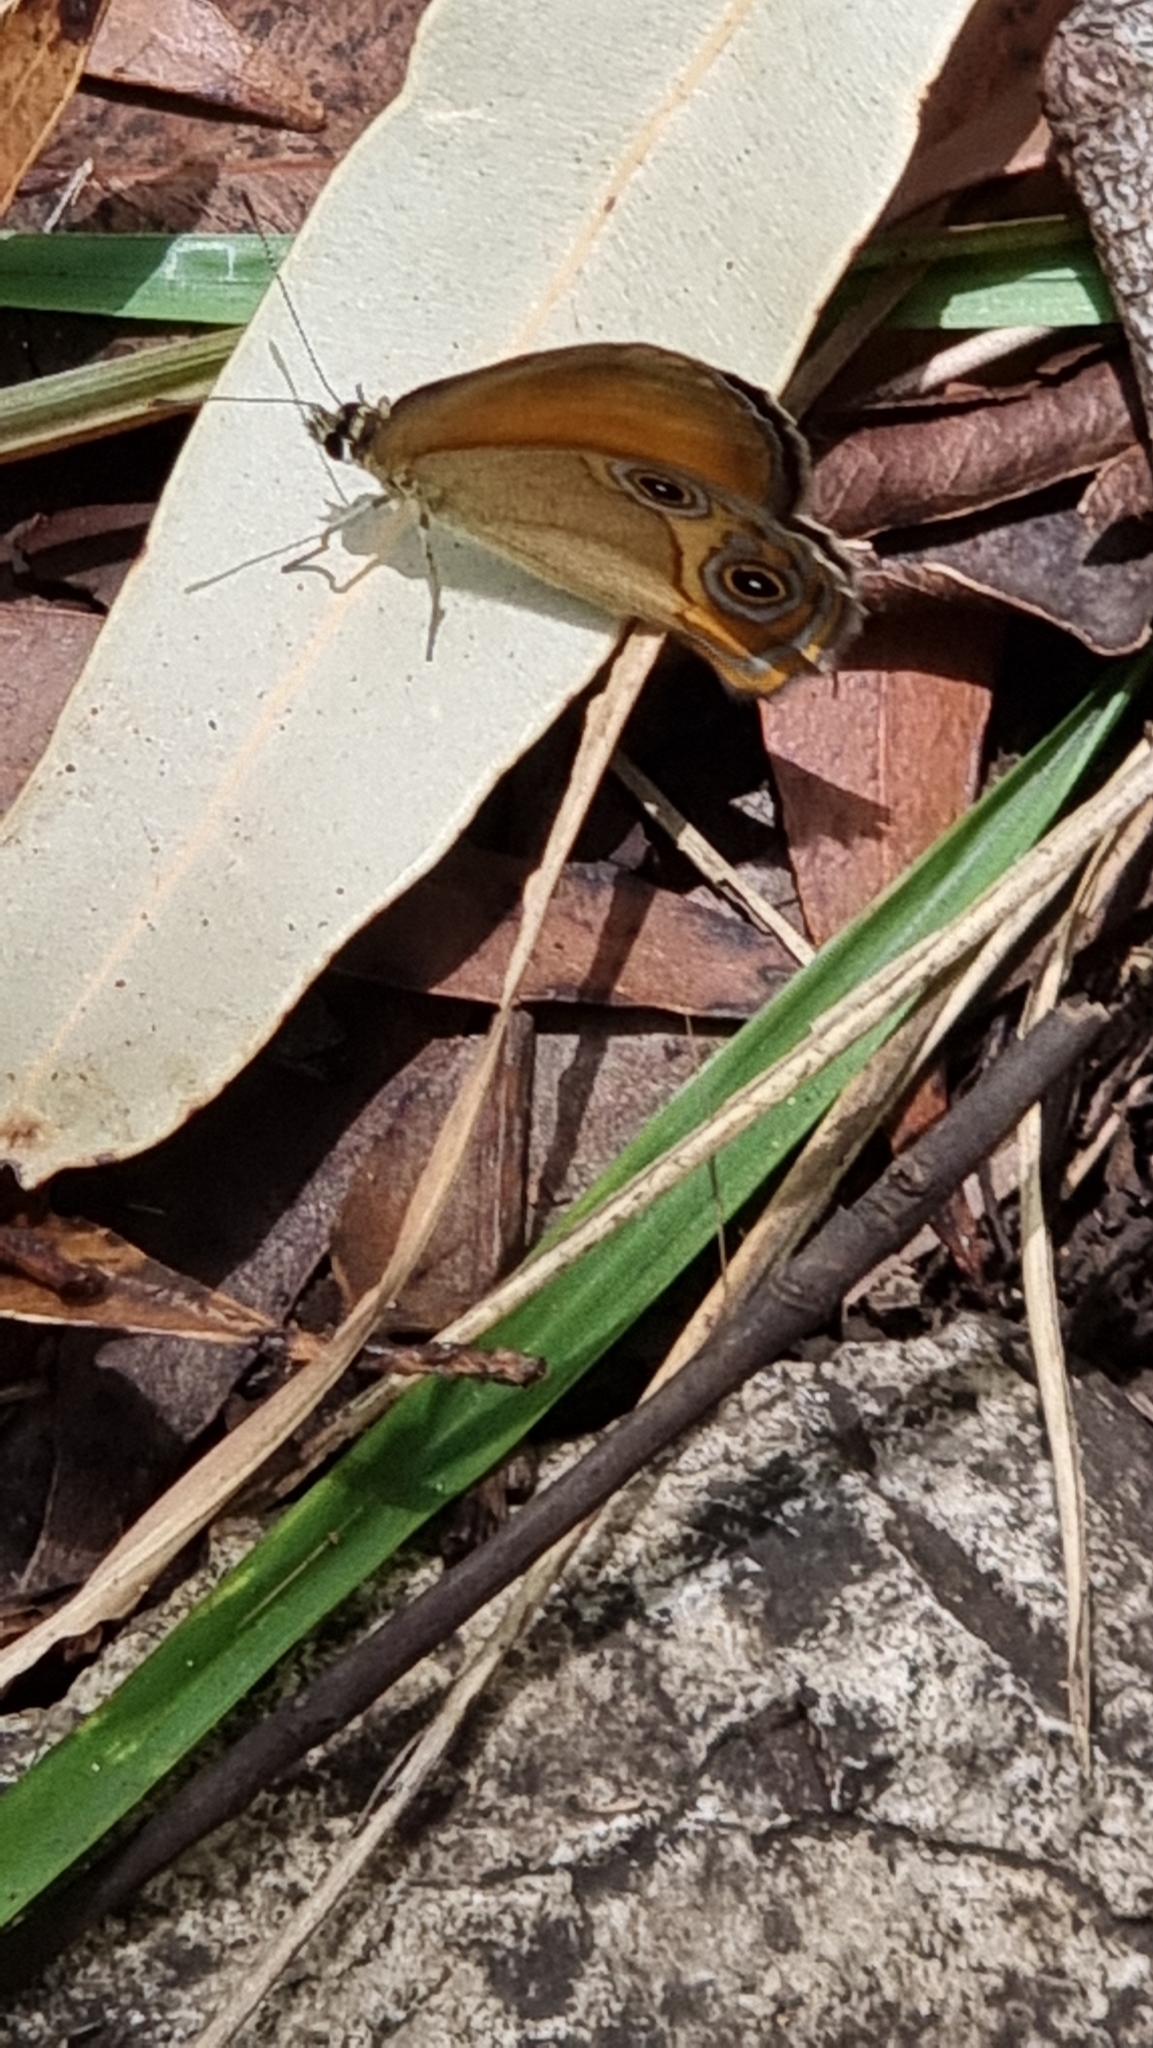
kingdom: Animalia
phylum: Arthropoda
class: Insecta
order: Lepidoptera
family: Nymphalidae
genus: Hypocysta
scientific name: Hypocysta adiante
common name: Orange ringlet
